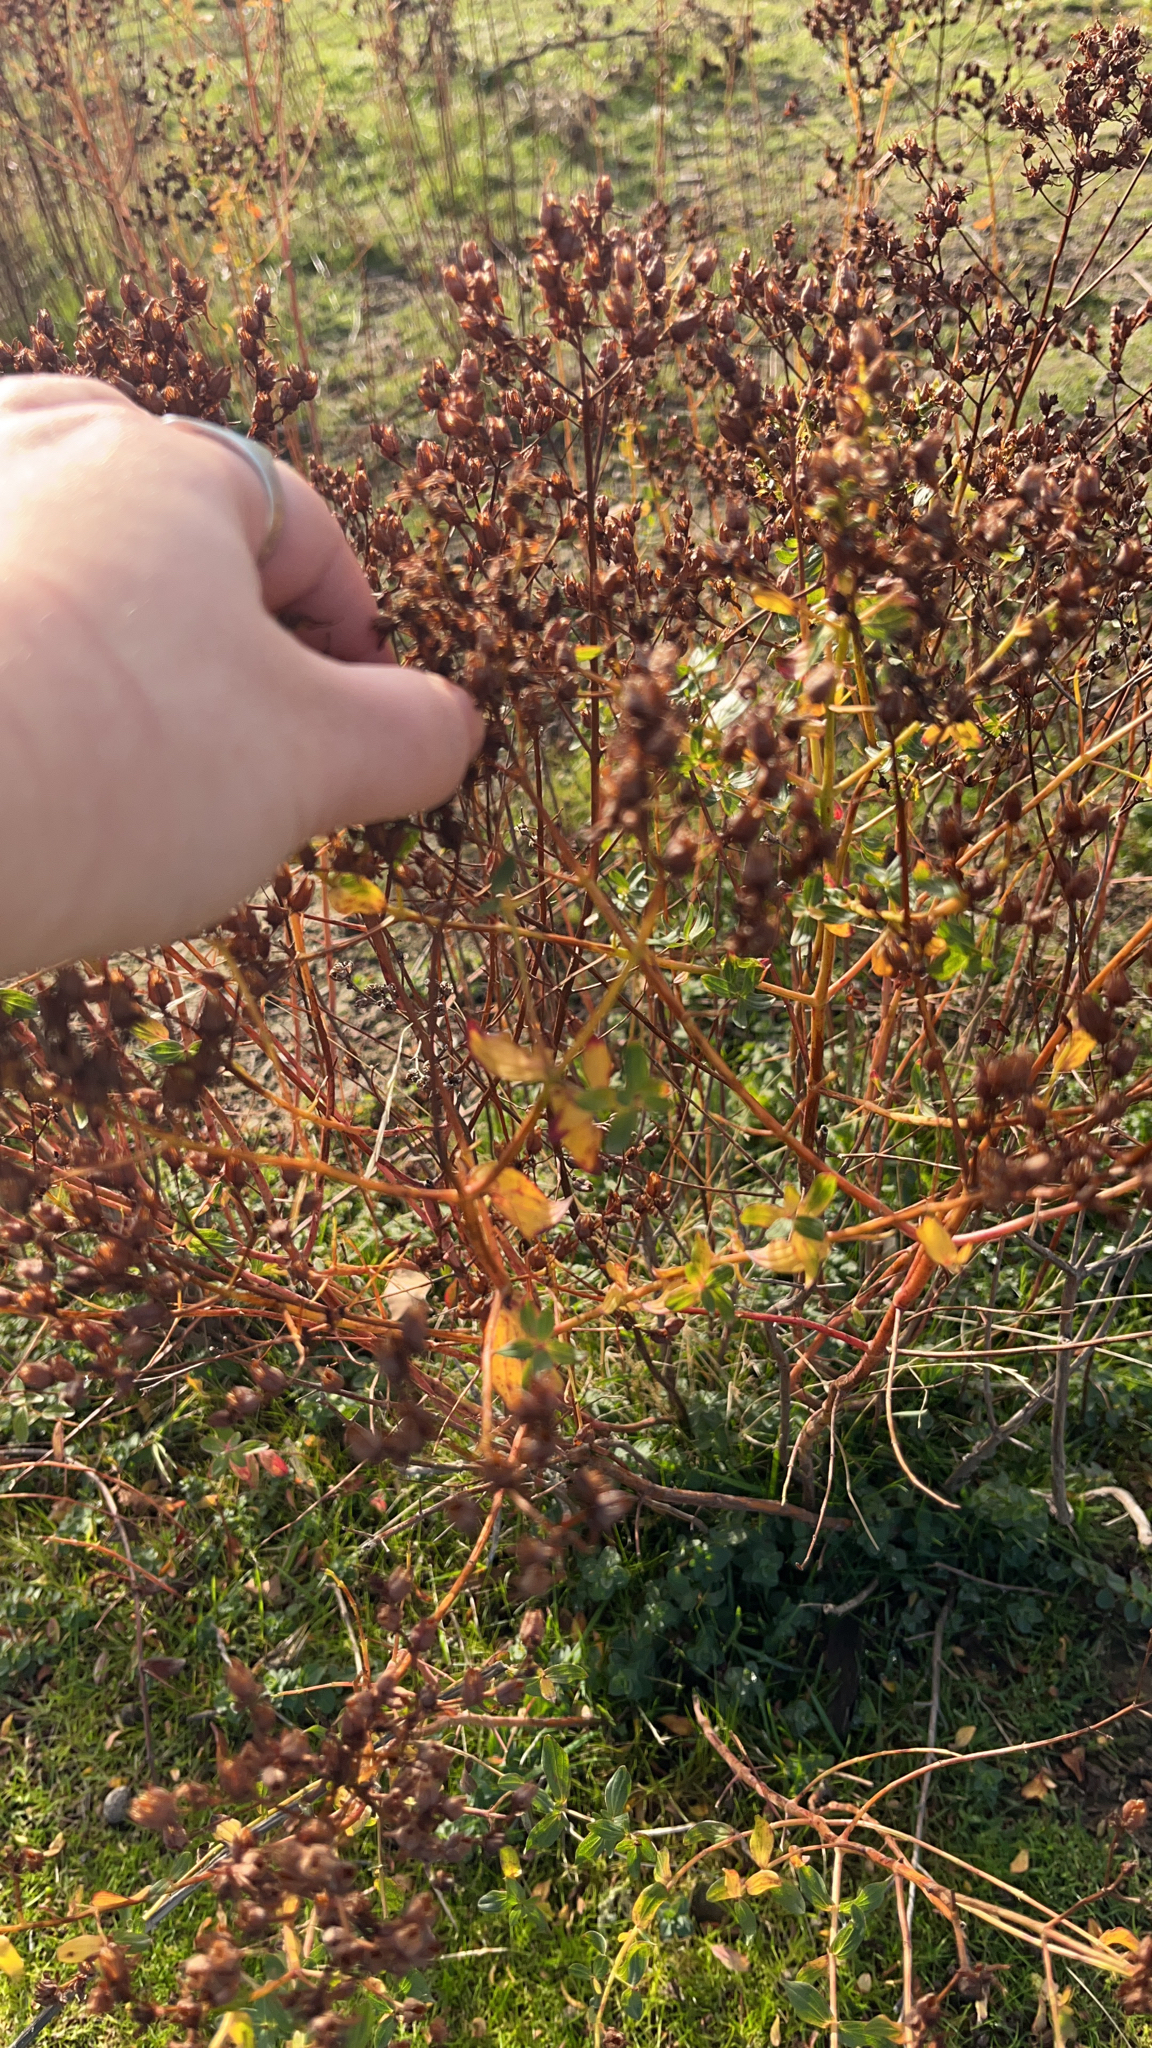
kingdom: Plantae
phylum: Tracheophyta
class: Magnoliopsida
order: Malpighiales
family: Hypericaceae
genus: Hypericum
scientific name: Hypericum perforatum
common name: Common st. johnswort
